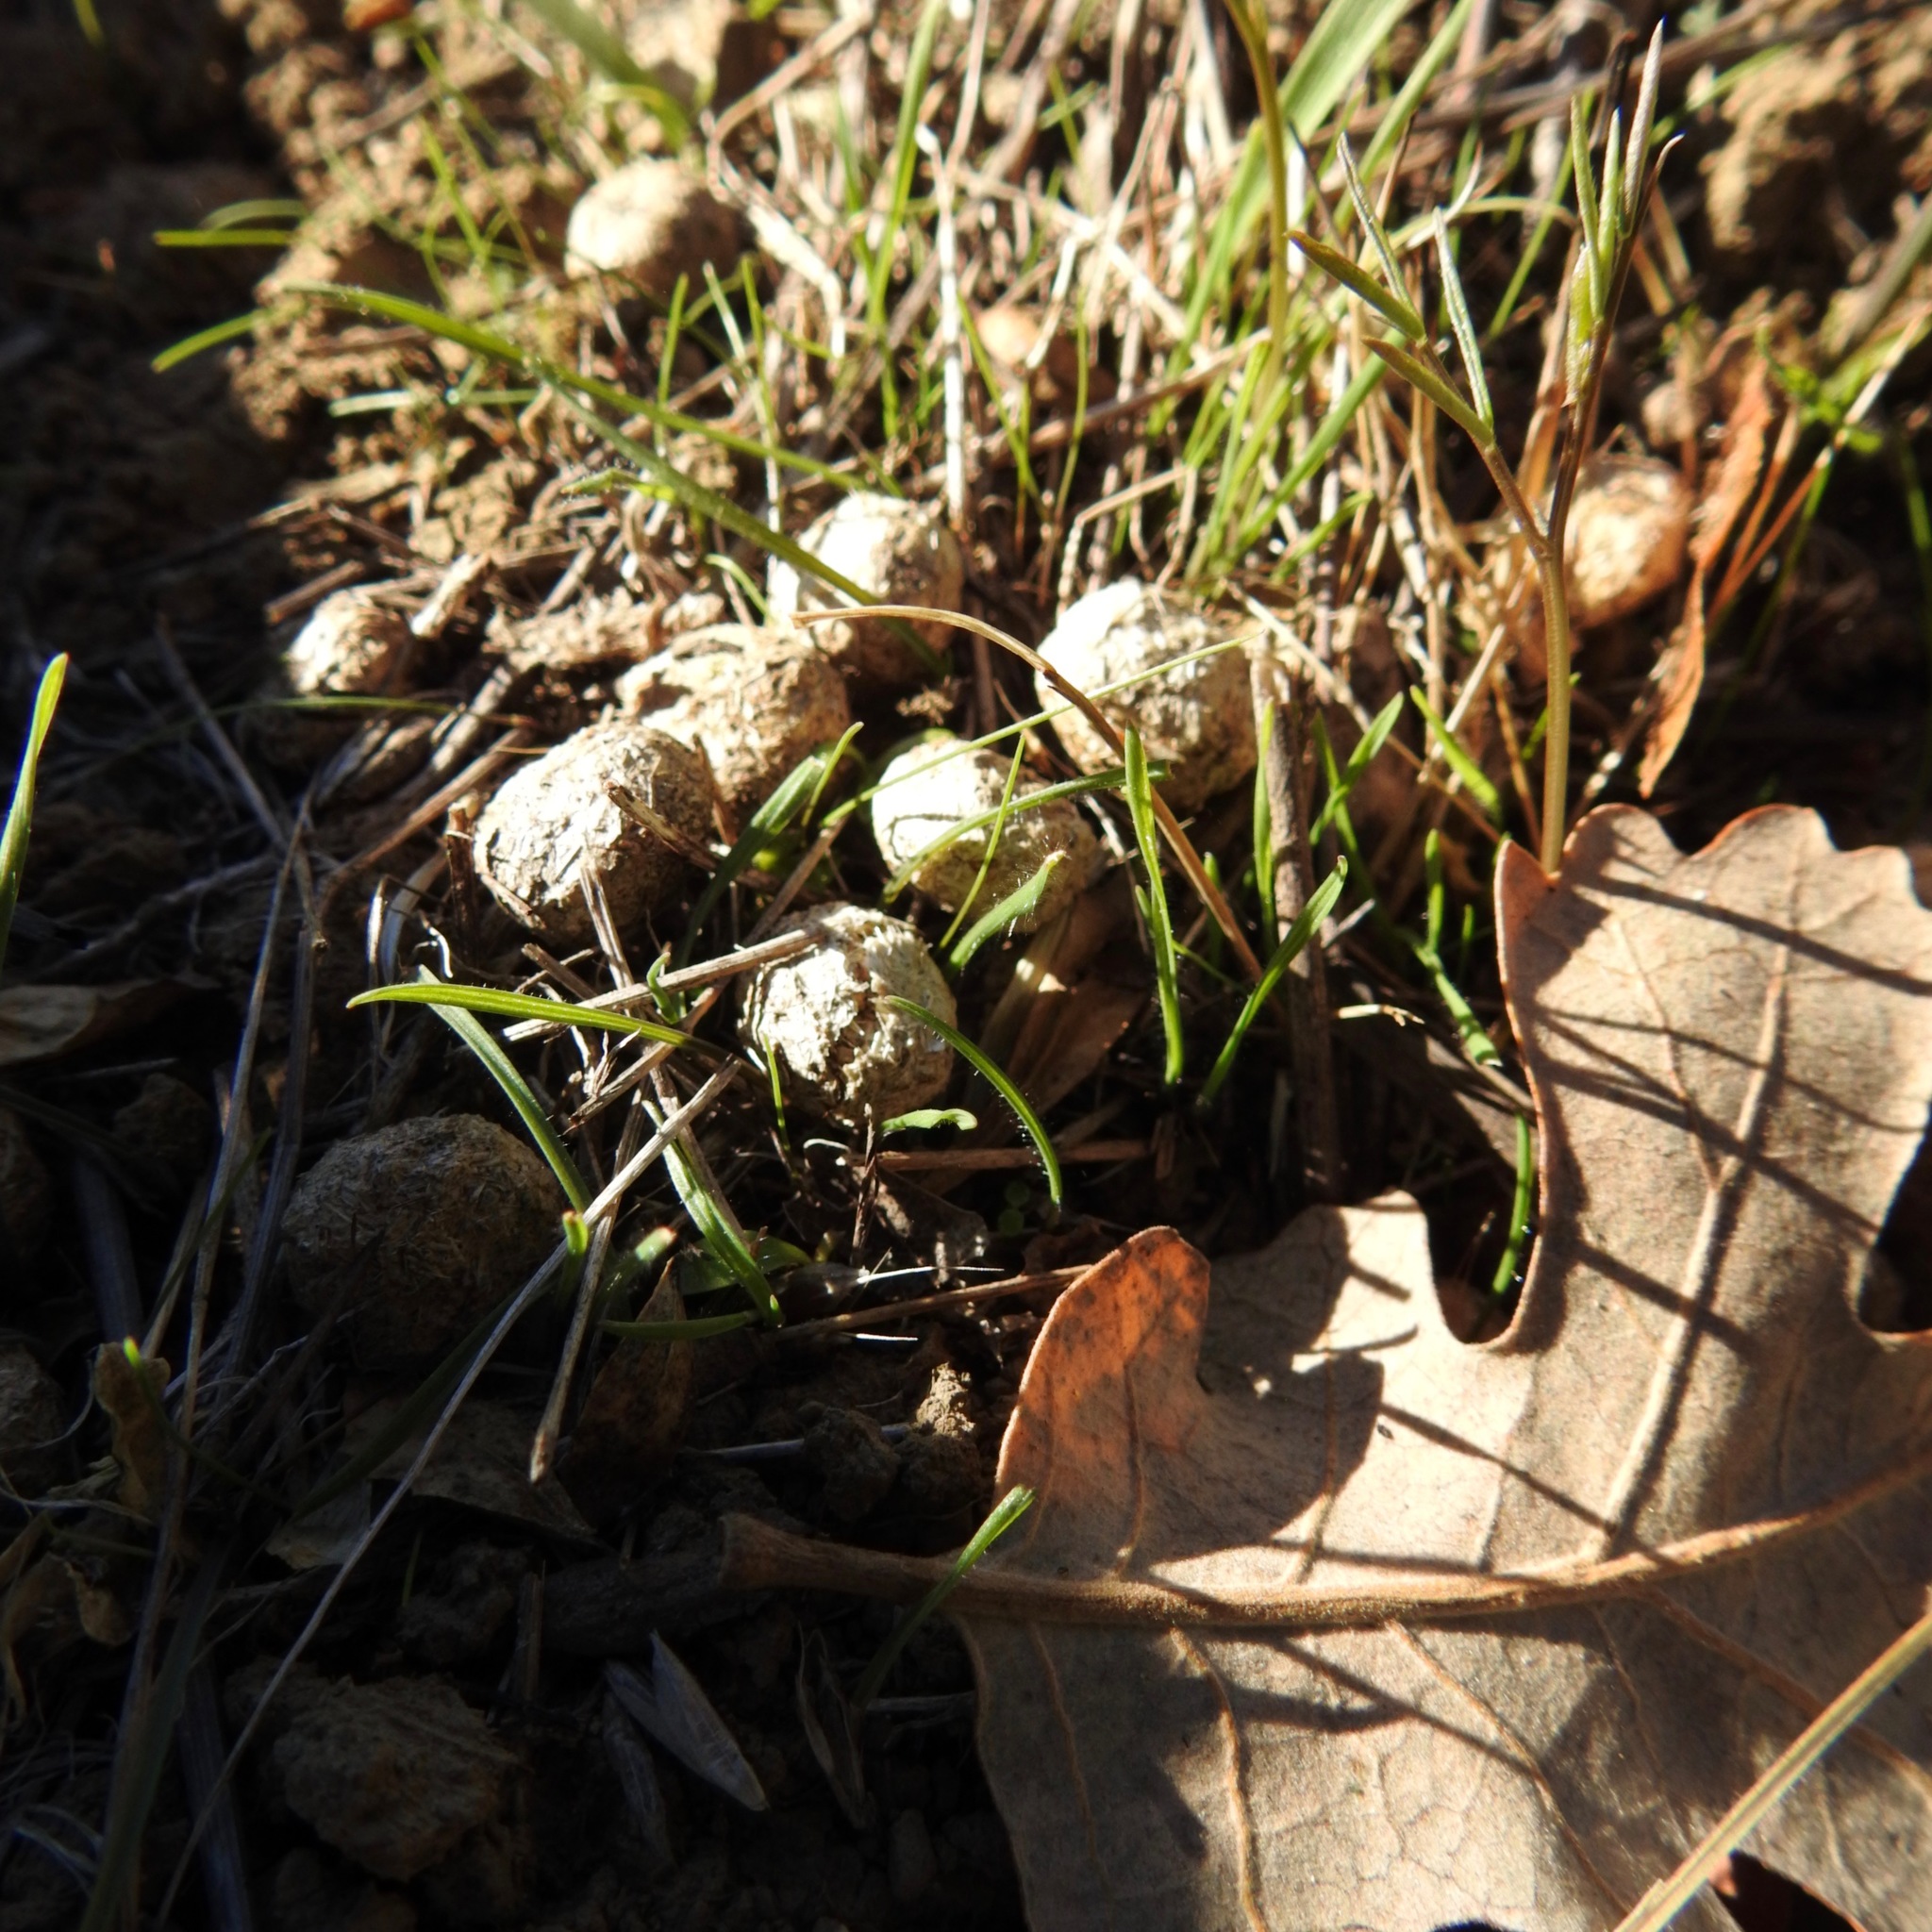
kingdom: Animalia
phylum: Chordata
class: Mammalia
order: Lagomorpha
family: Leporidae
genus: Lepus
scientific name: Lepus californicus
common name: Black-tailed jackrabbit
